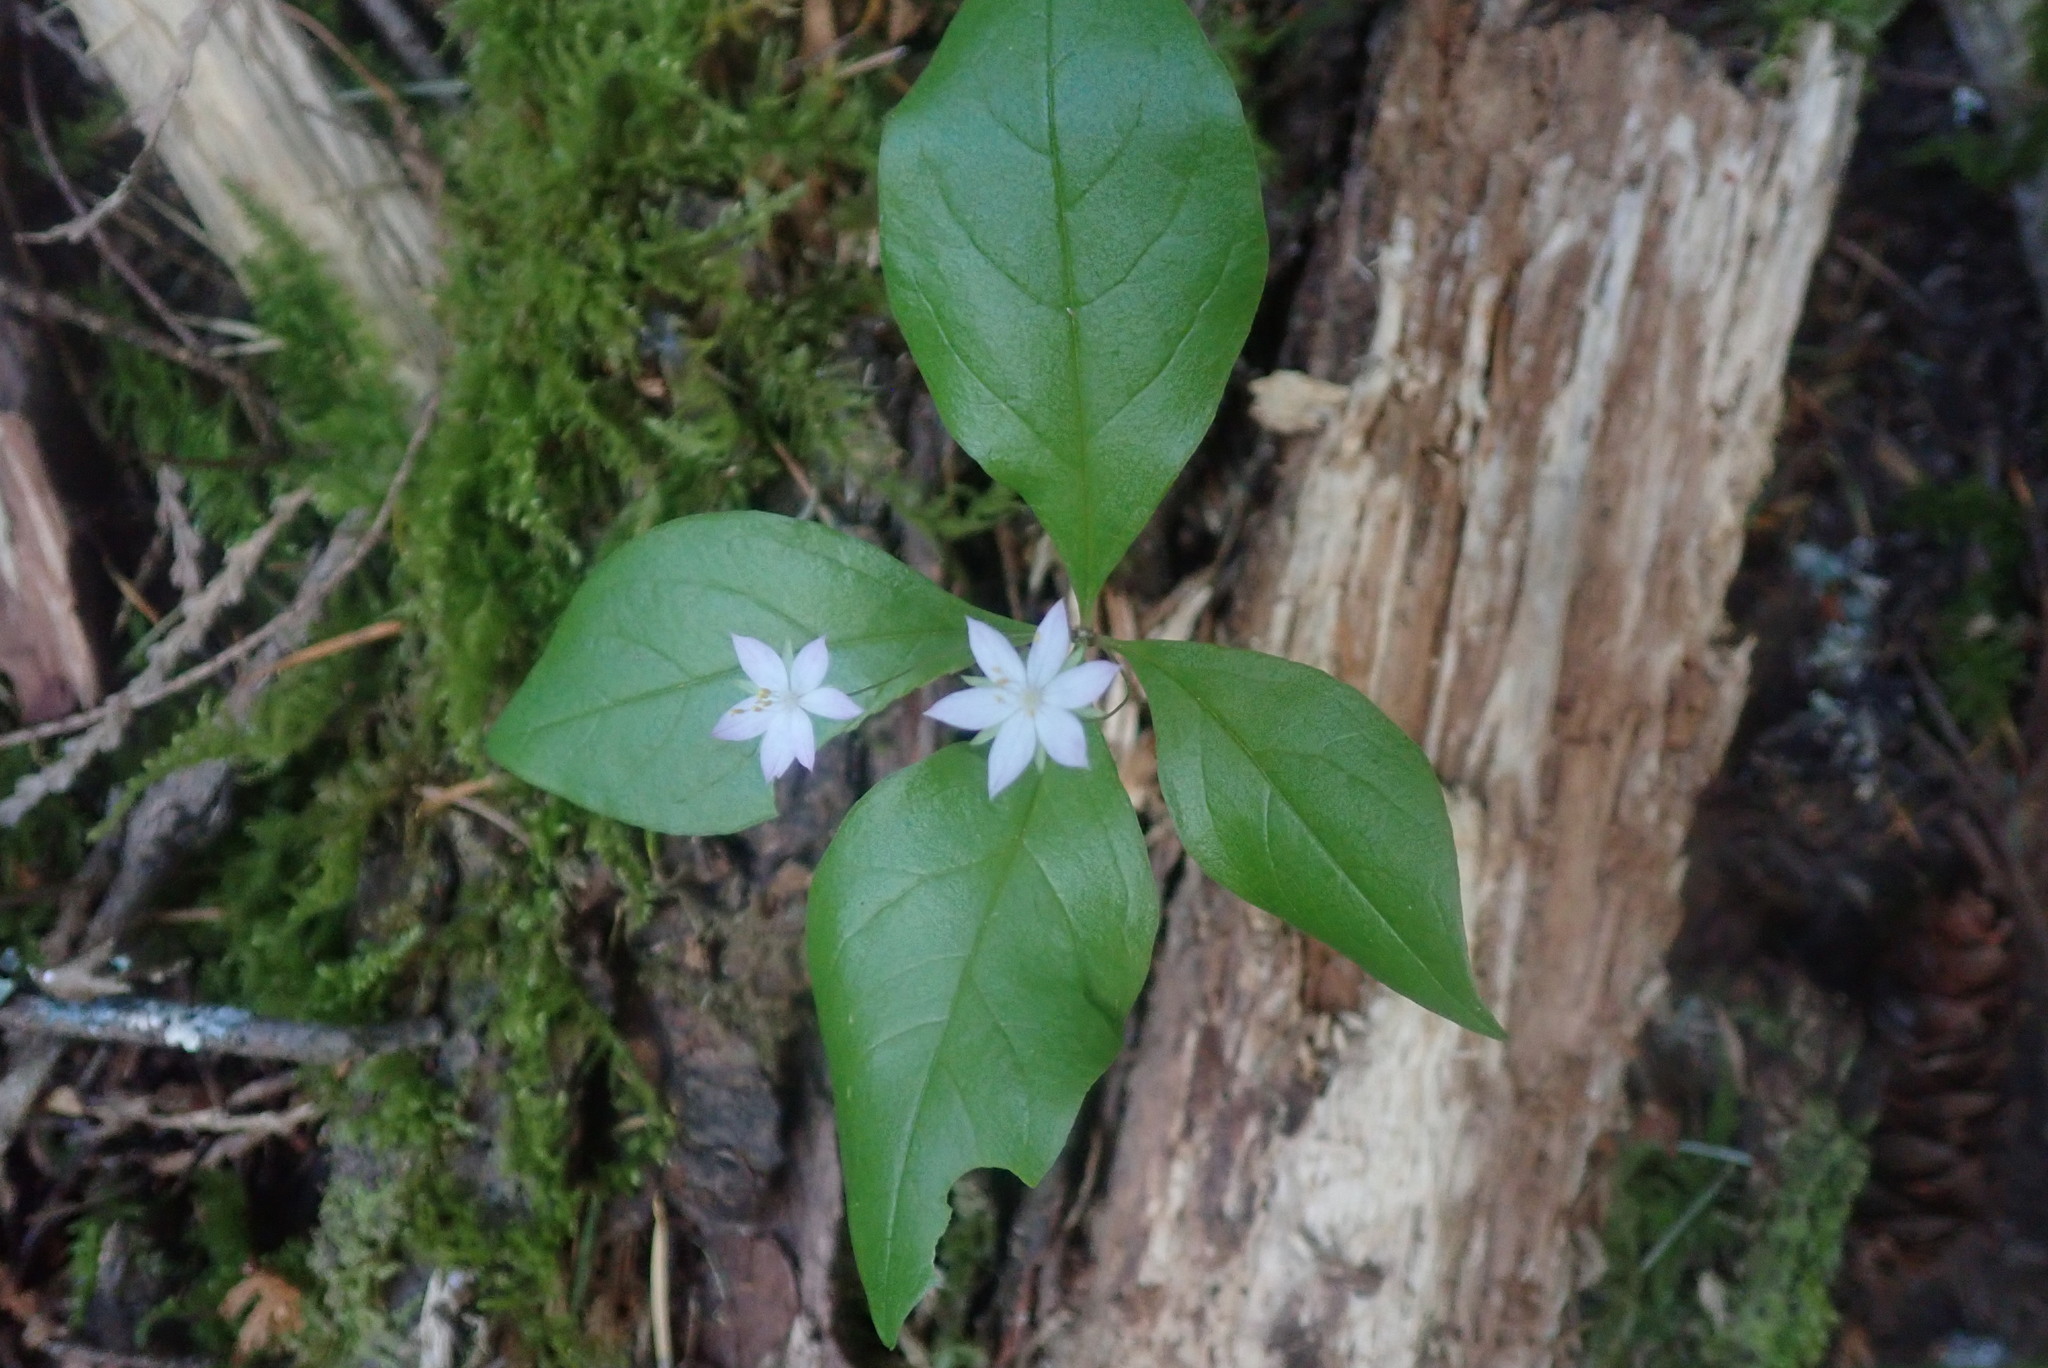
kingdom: Plantae
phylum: Tracheophyta
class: Magnoliopsida
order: Ericales
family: Primulaceae
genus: Lysimachia
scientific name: Lysimachia latifolia
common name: Pacific starflower
